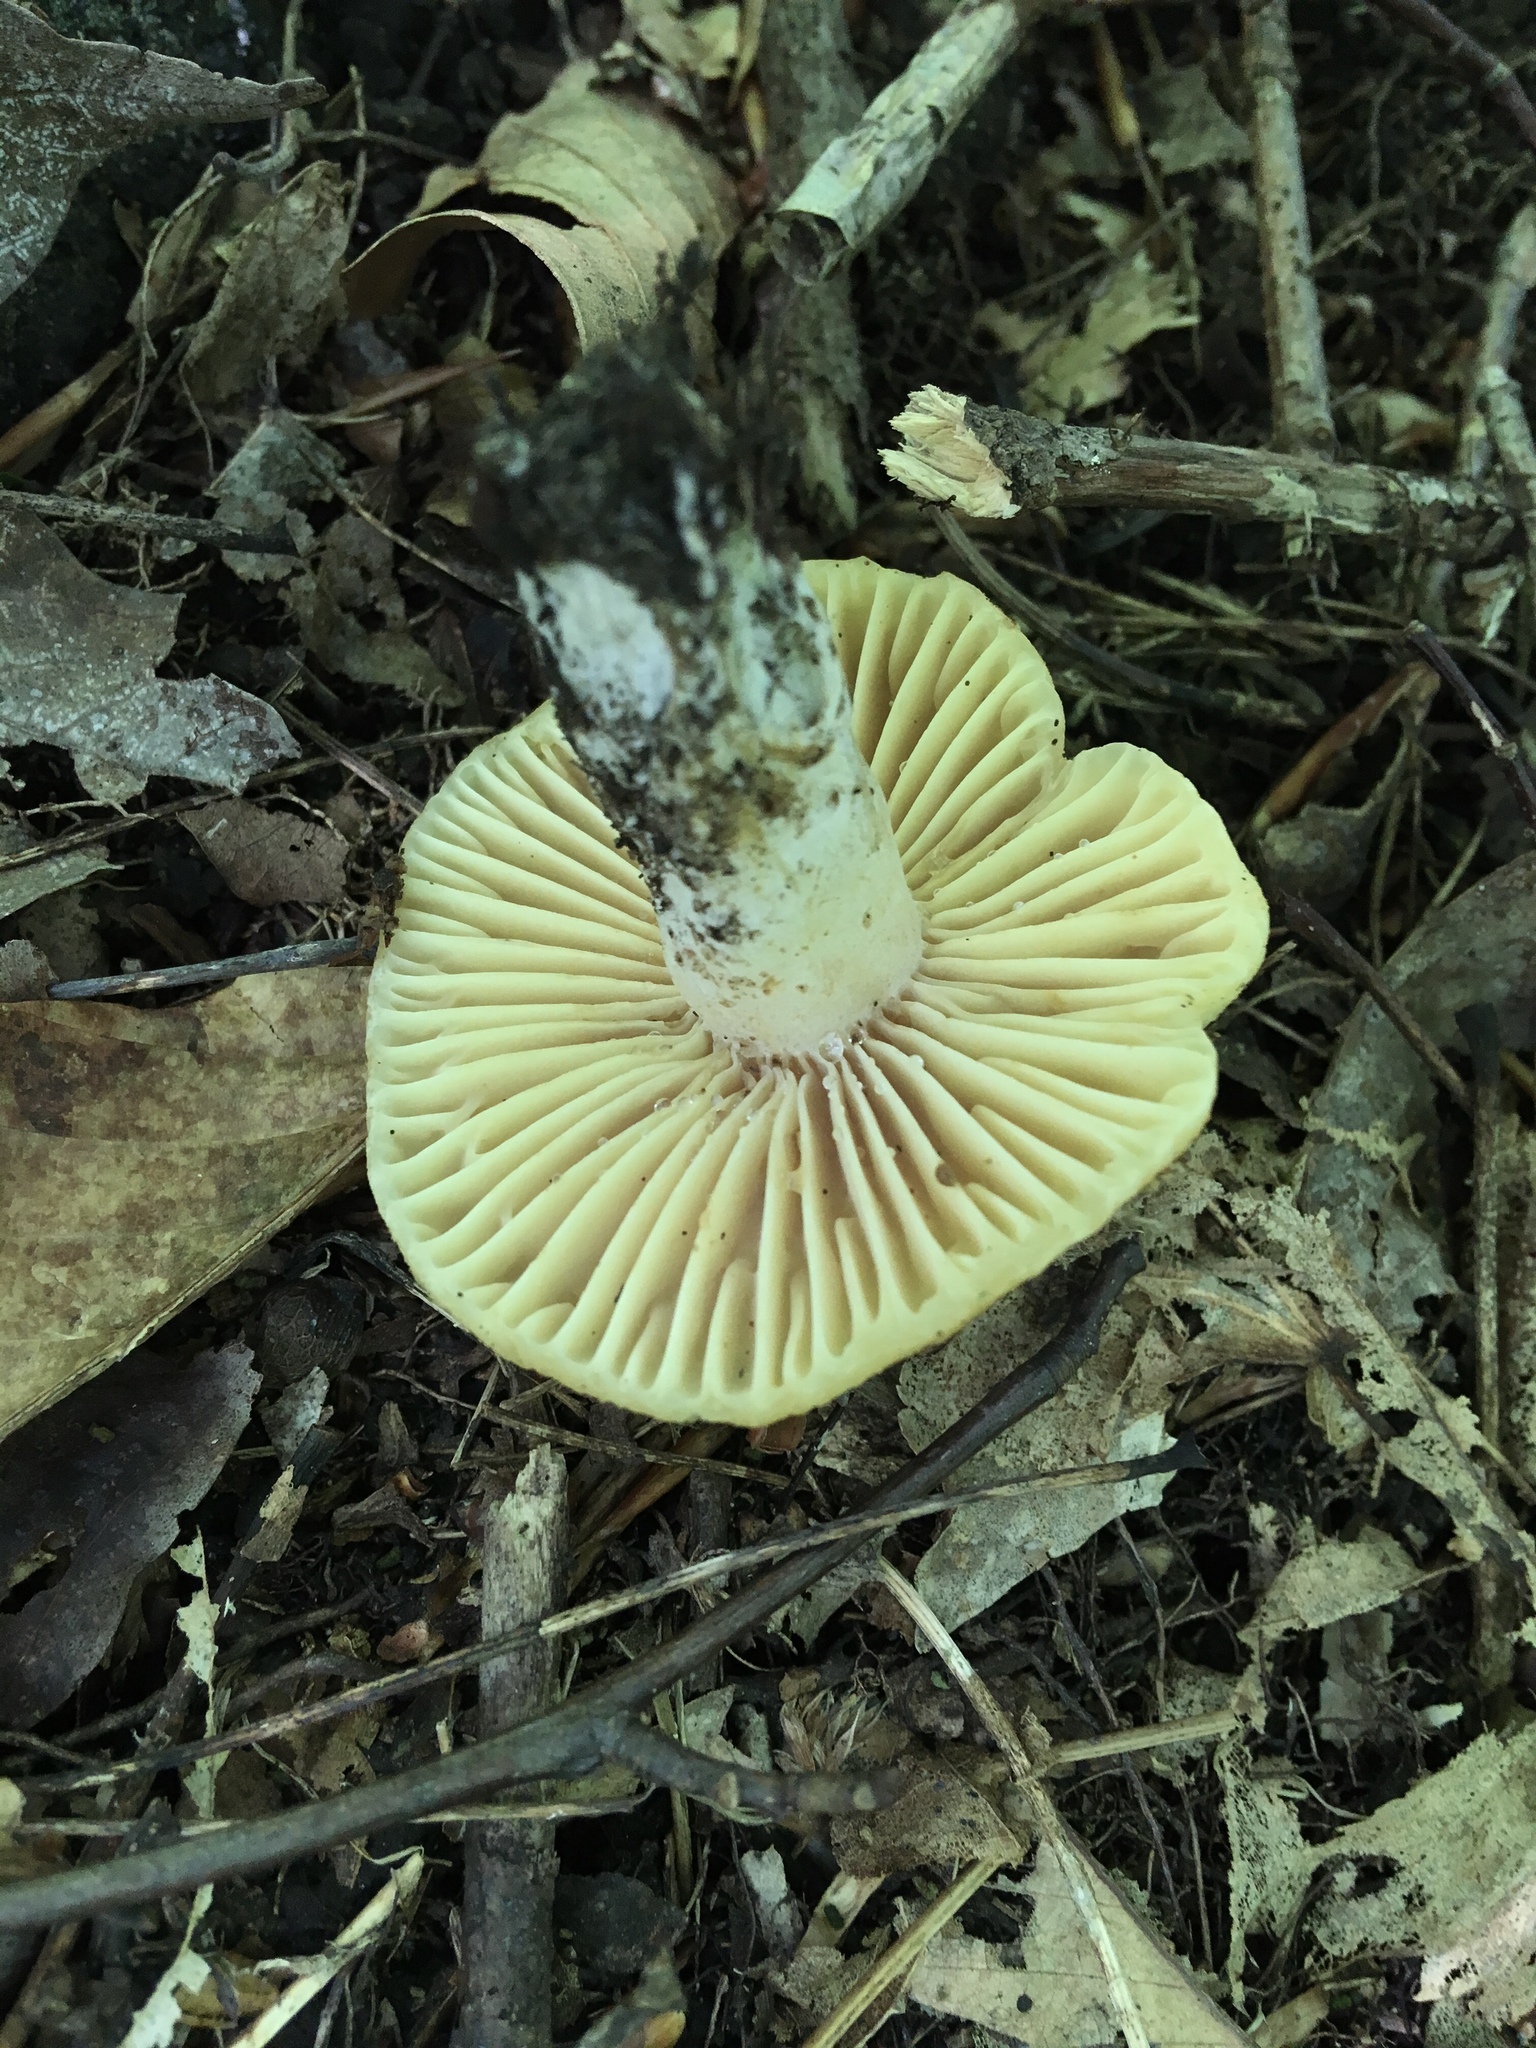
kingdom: Fungi
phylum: Basidiomycota
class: Agaricomycetes
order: Russulales
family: Russulaceae
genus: Russula
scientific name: Russula earlei
